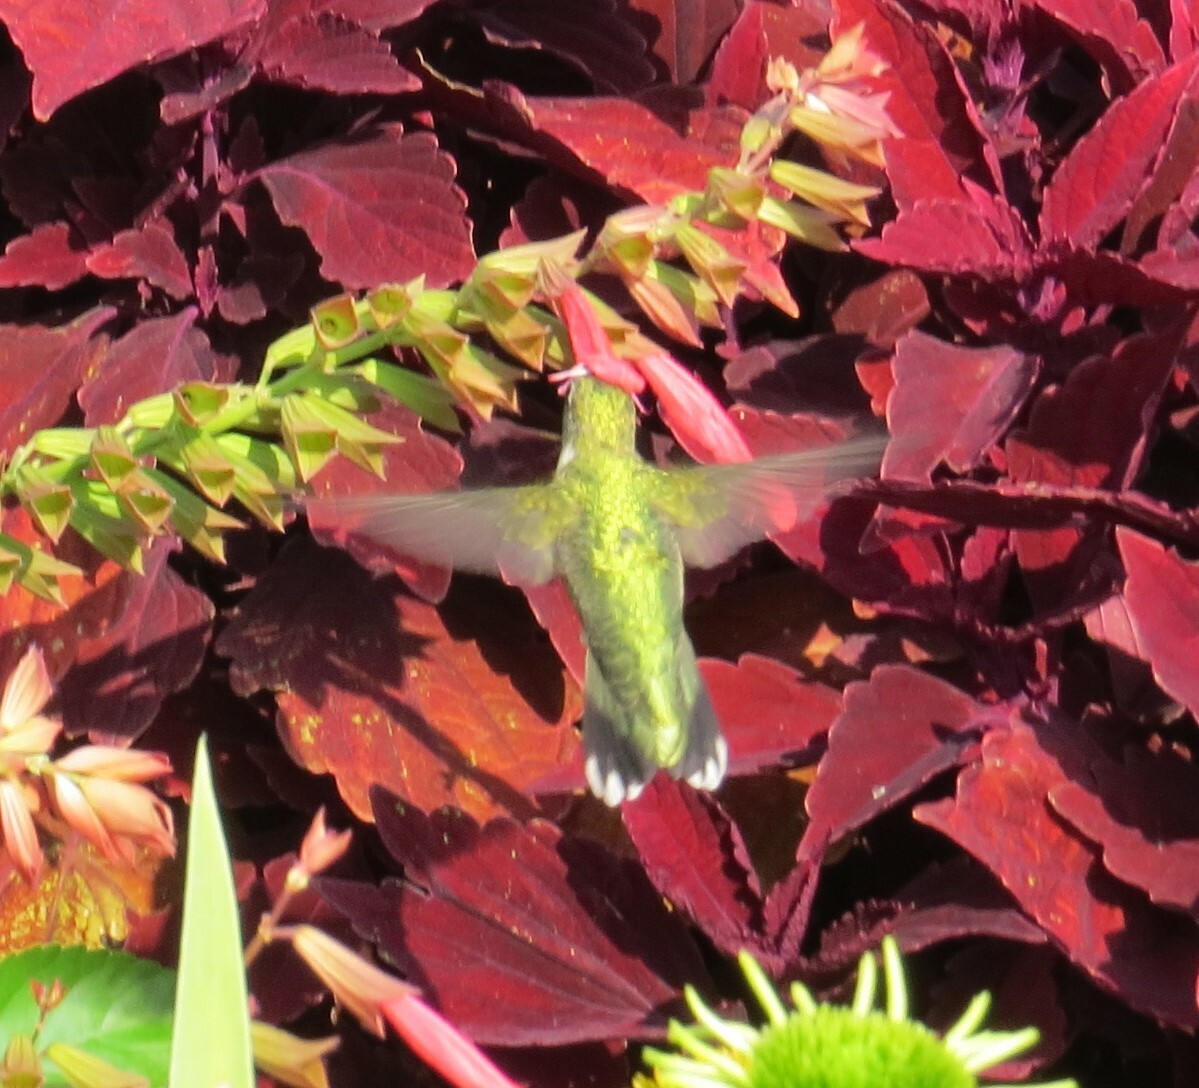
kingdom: Animalia
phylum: Chordata
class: Aves
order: Apodiformes
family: Trochilidae
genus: Archilochus
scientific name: Archilochus colubris
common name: Ruby-throated hummingbird
